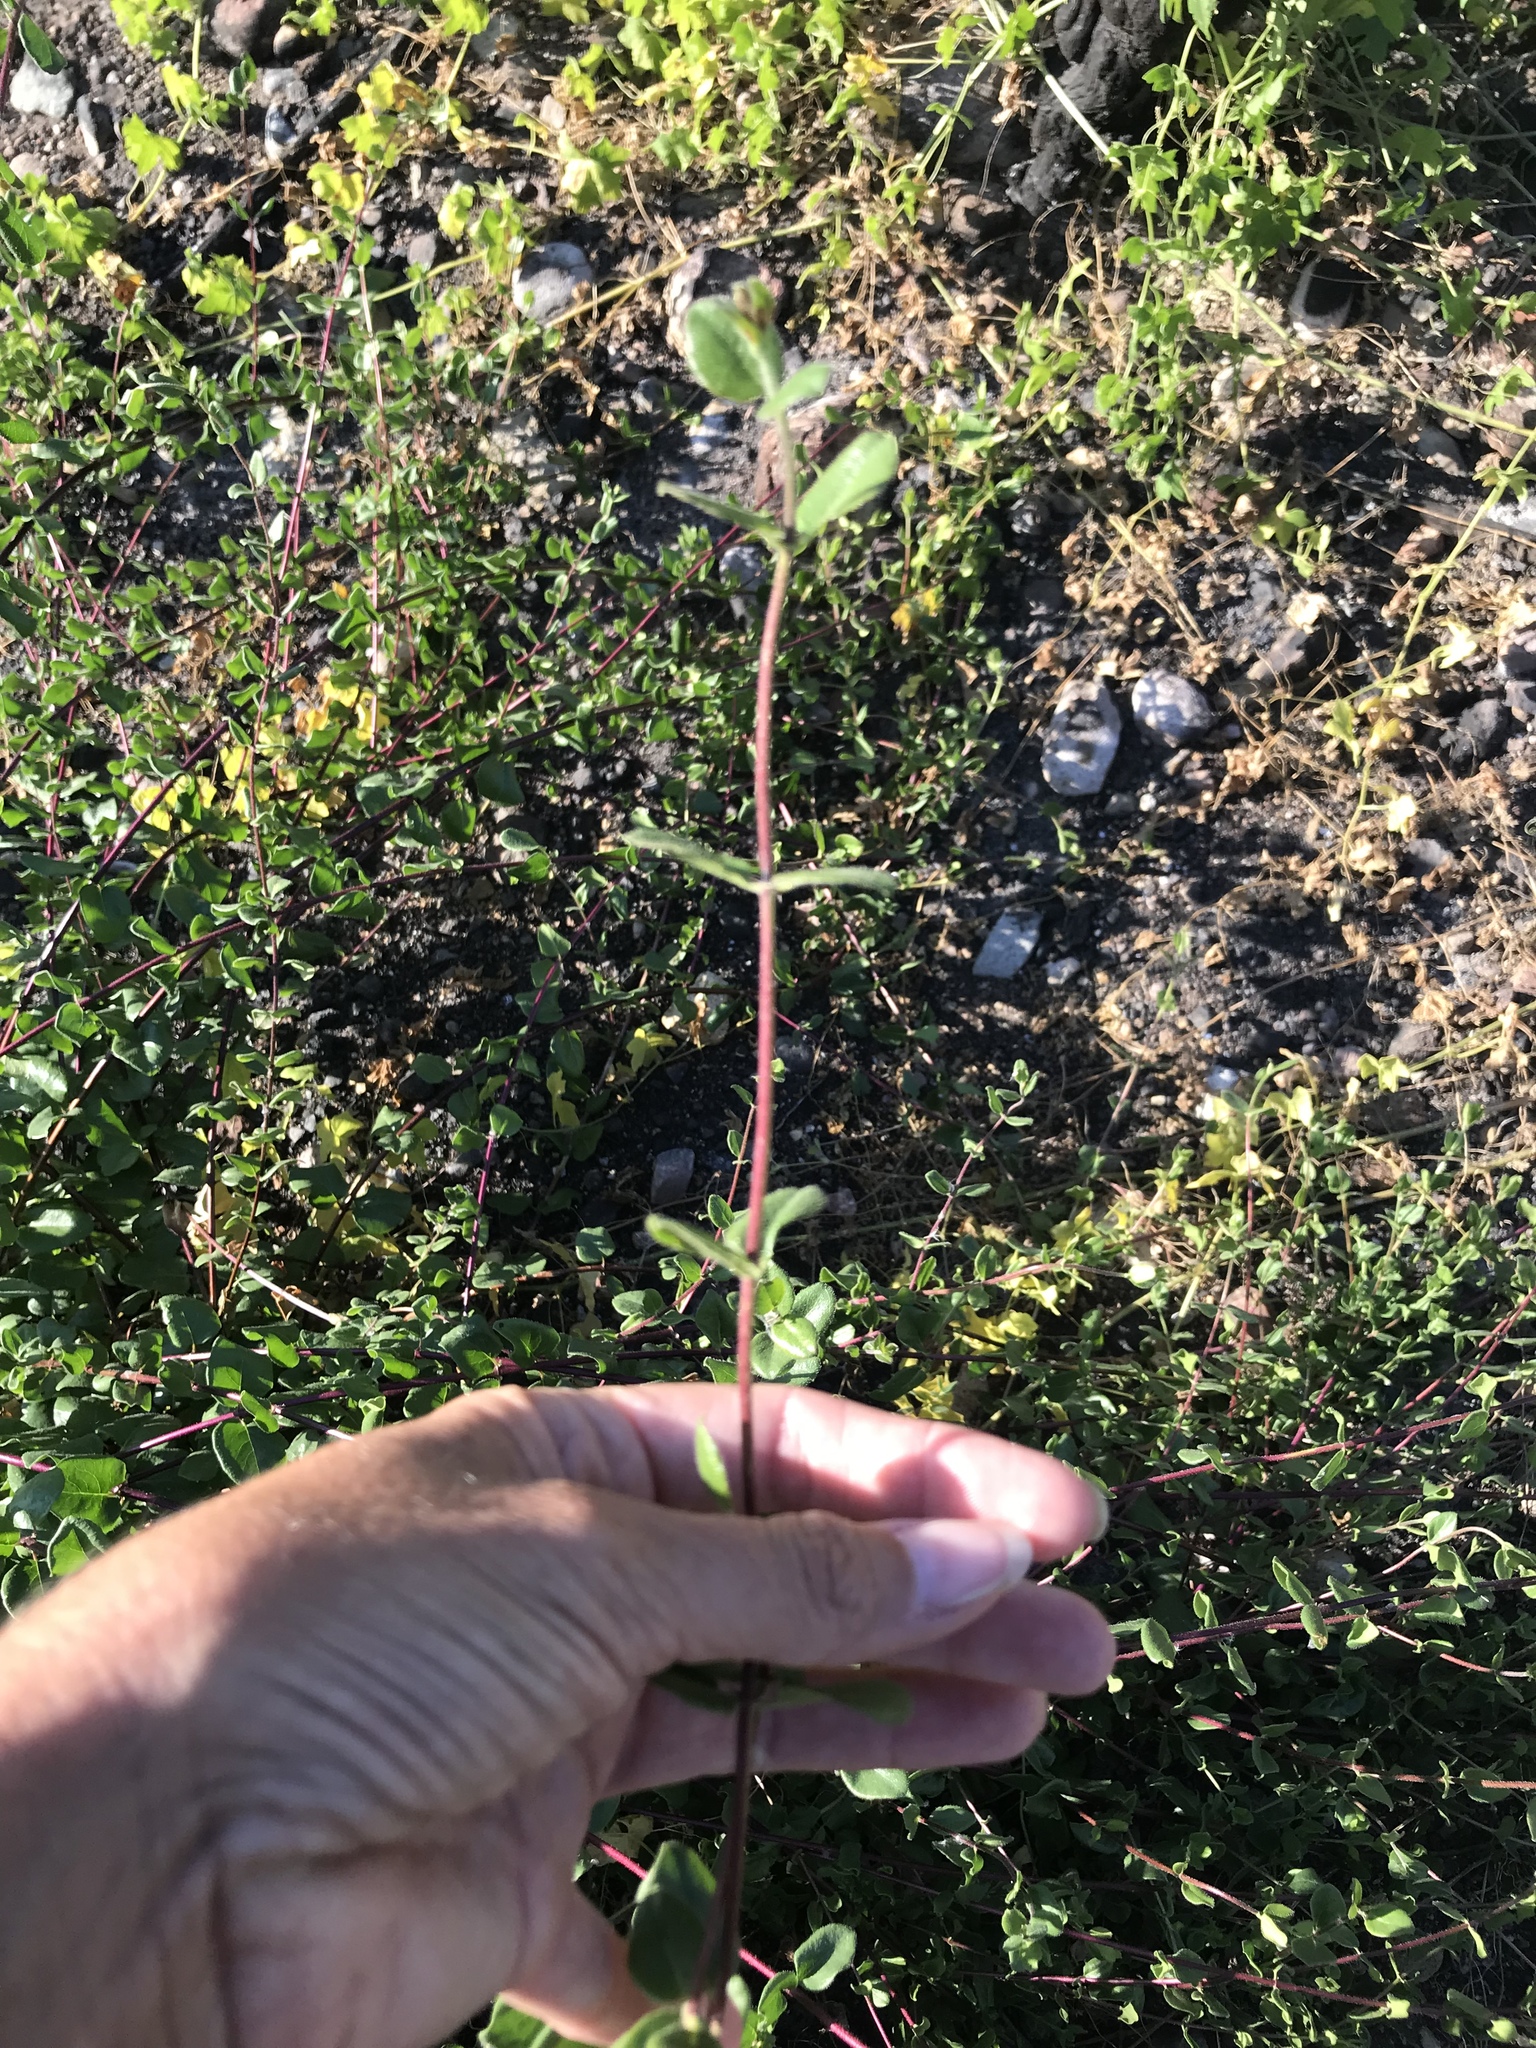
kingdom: Plantae
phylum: Tracheophyta
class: Magnoliopsida
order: Dipsacales
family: Caprifoliaceae
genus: Lonicera
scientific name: Lonicera subspicata
